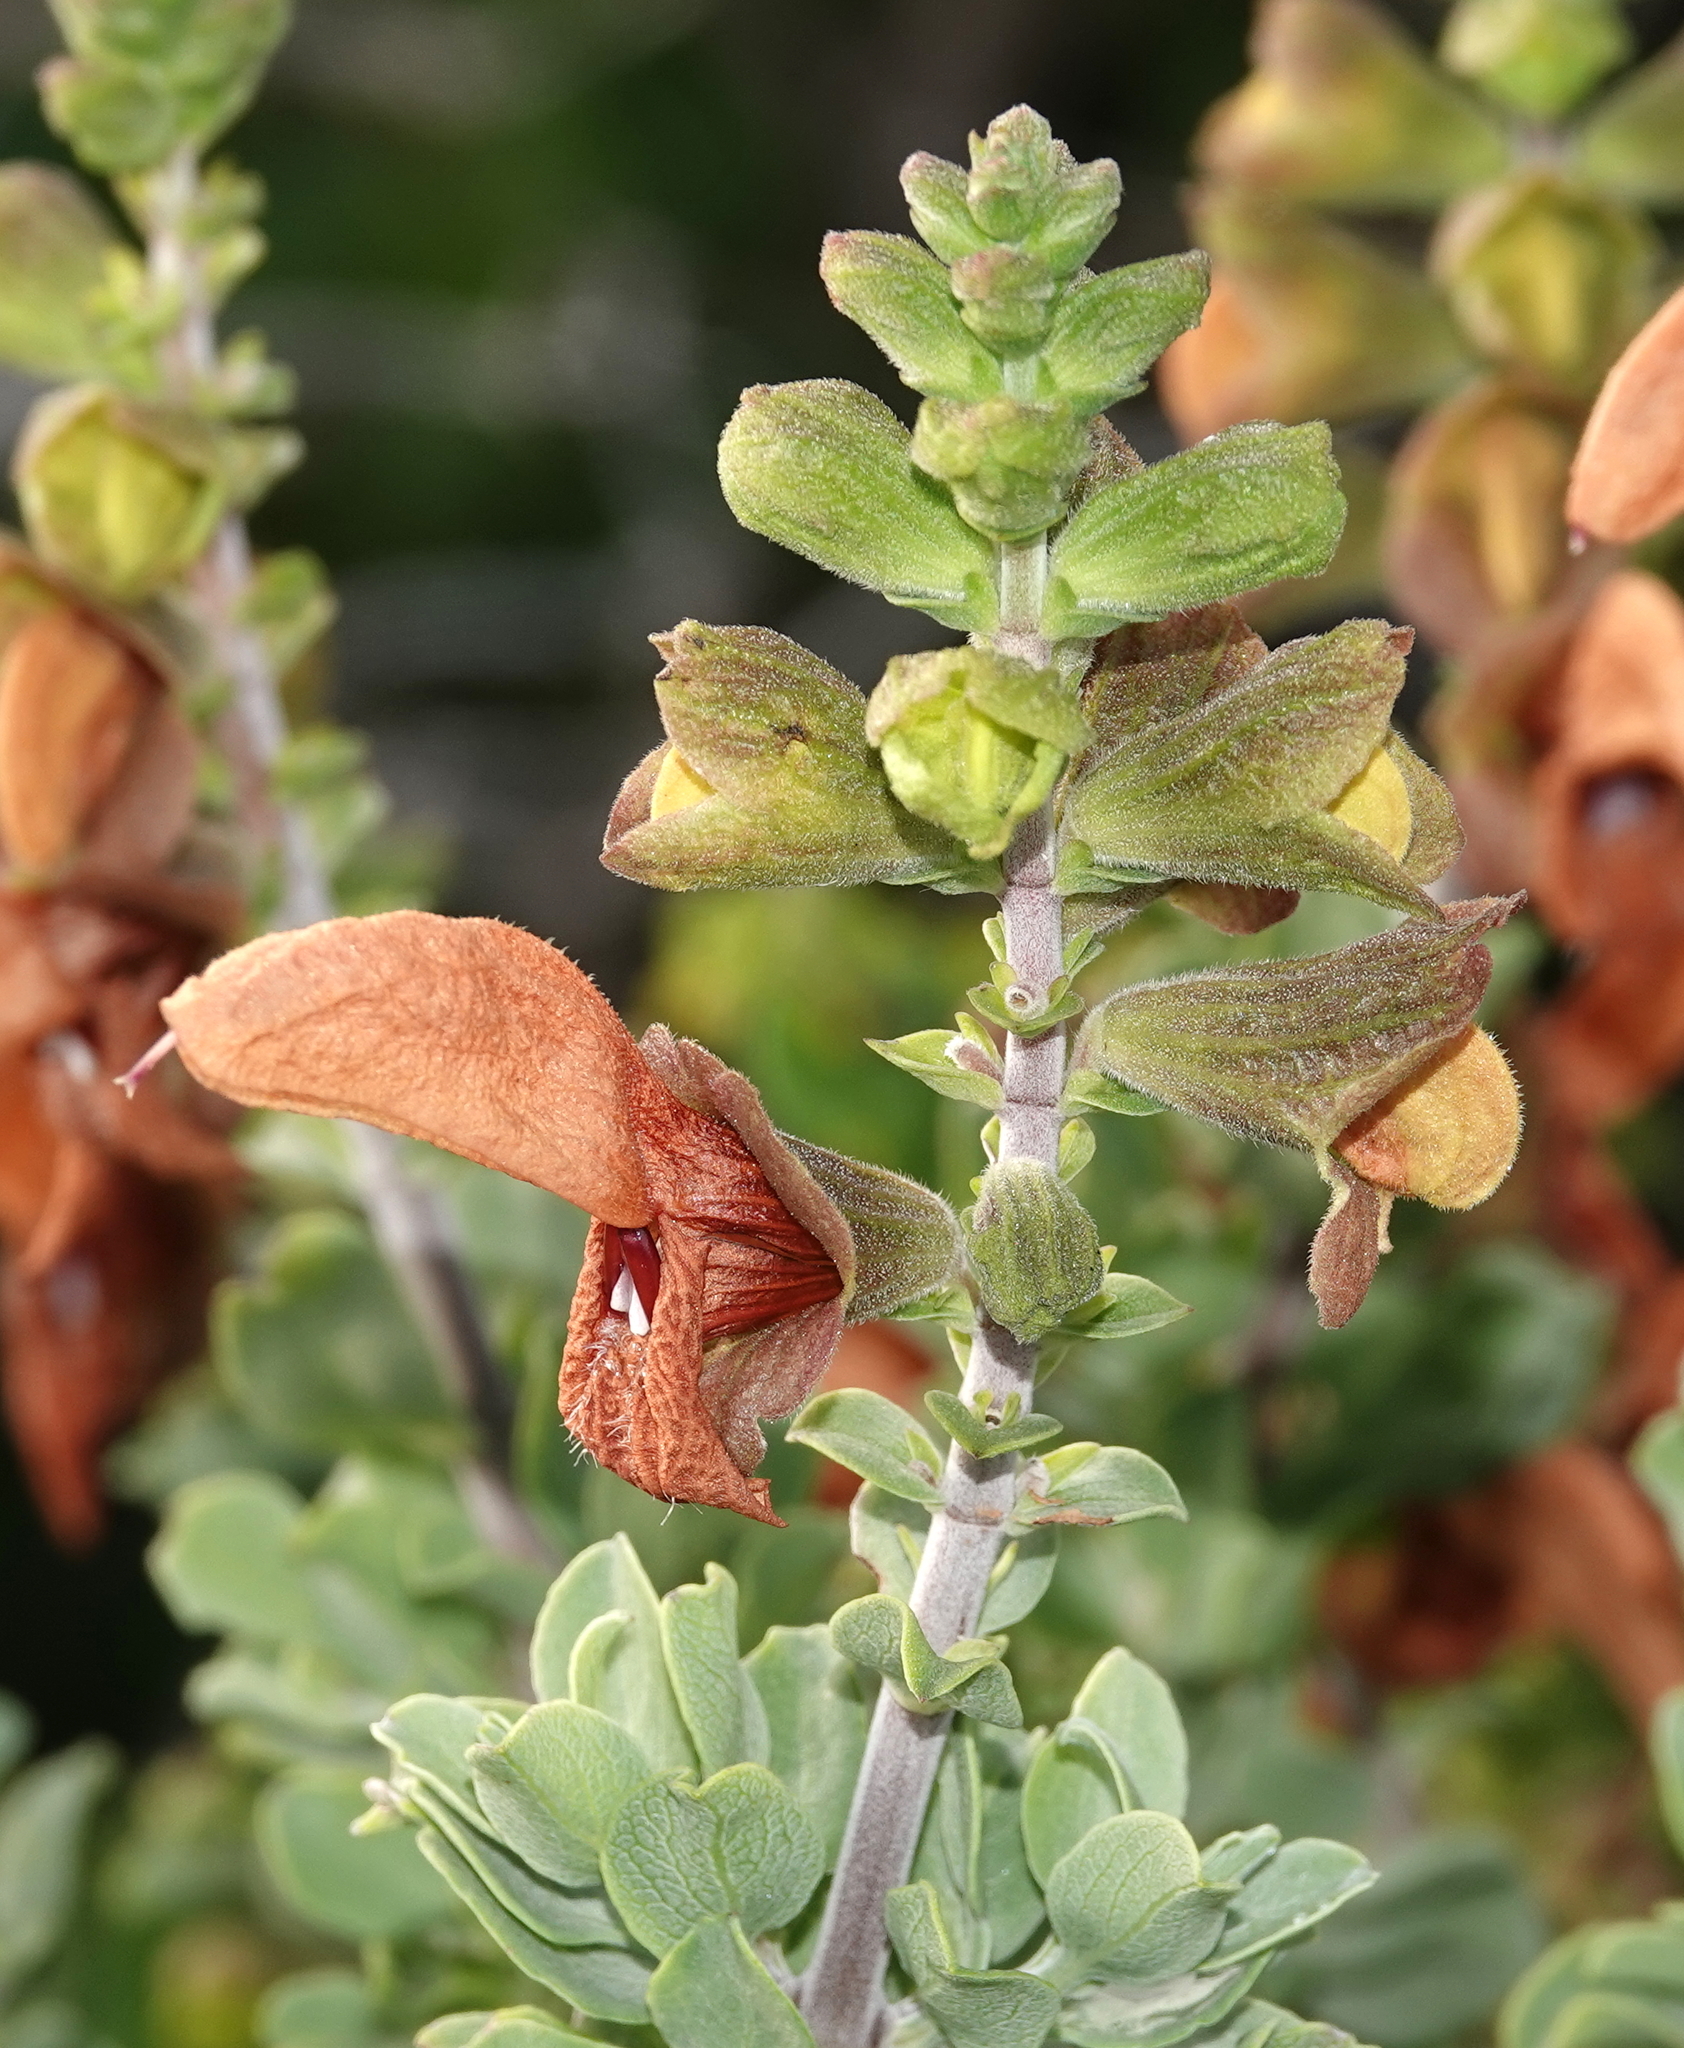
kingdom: Plantae
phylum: Tracheophyta
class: Magnoliopsida
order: Lamiales
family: Lamiaceae
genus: Salvia
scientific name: Salvia aurea
